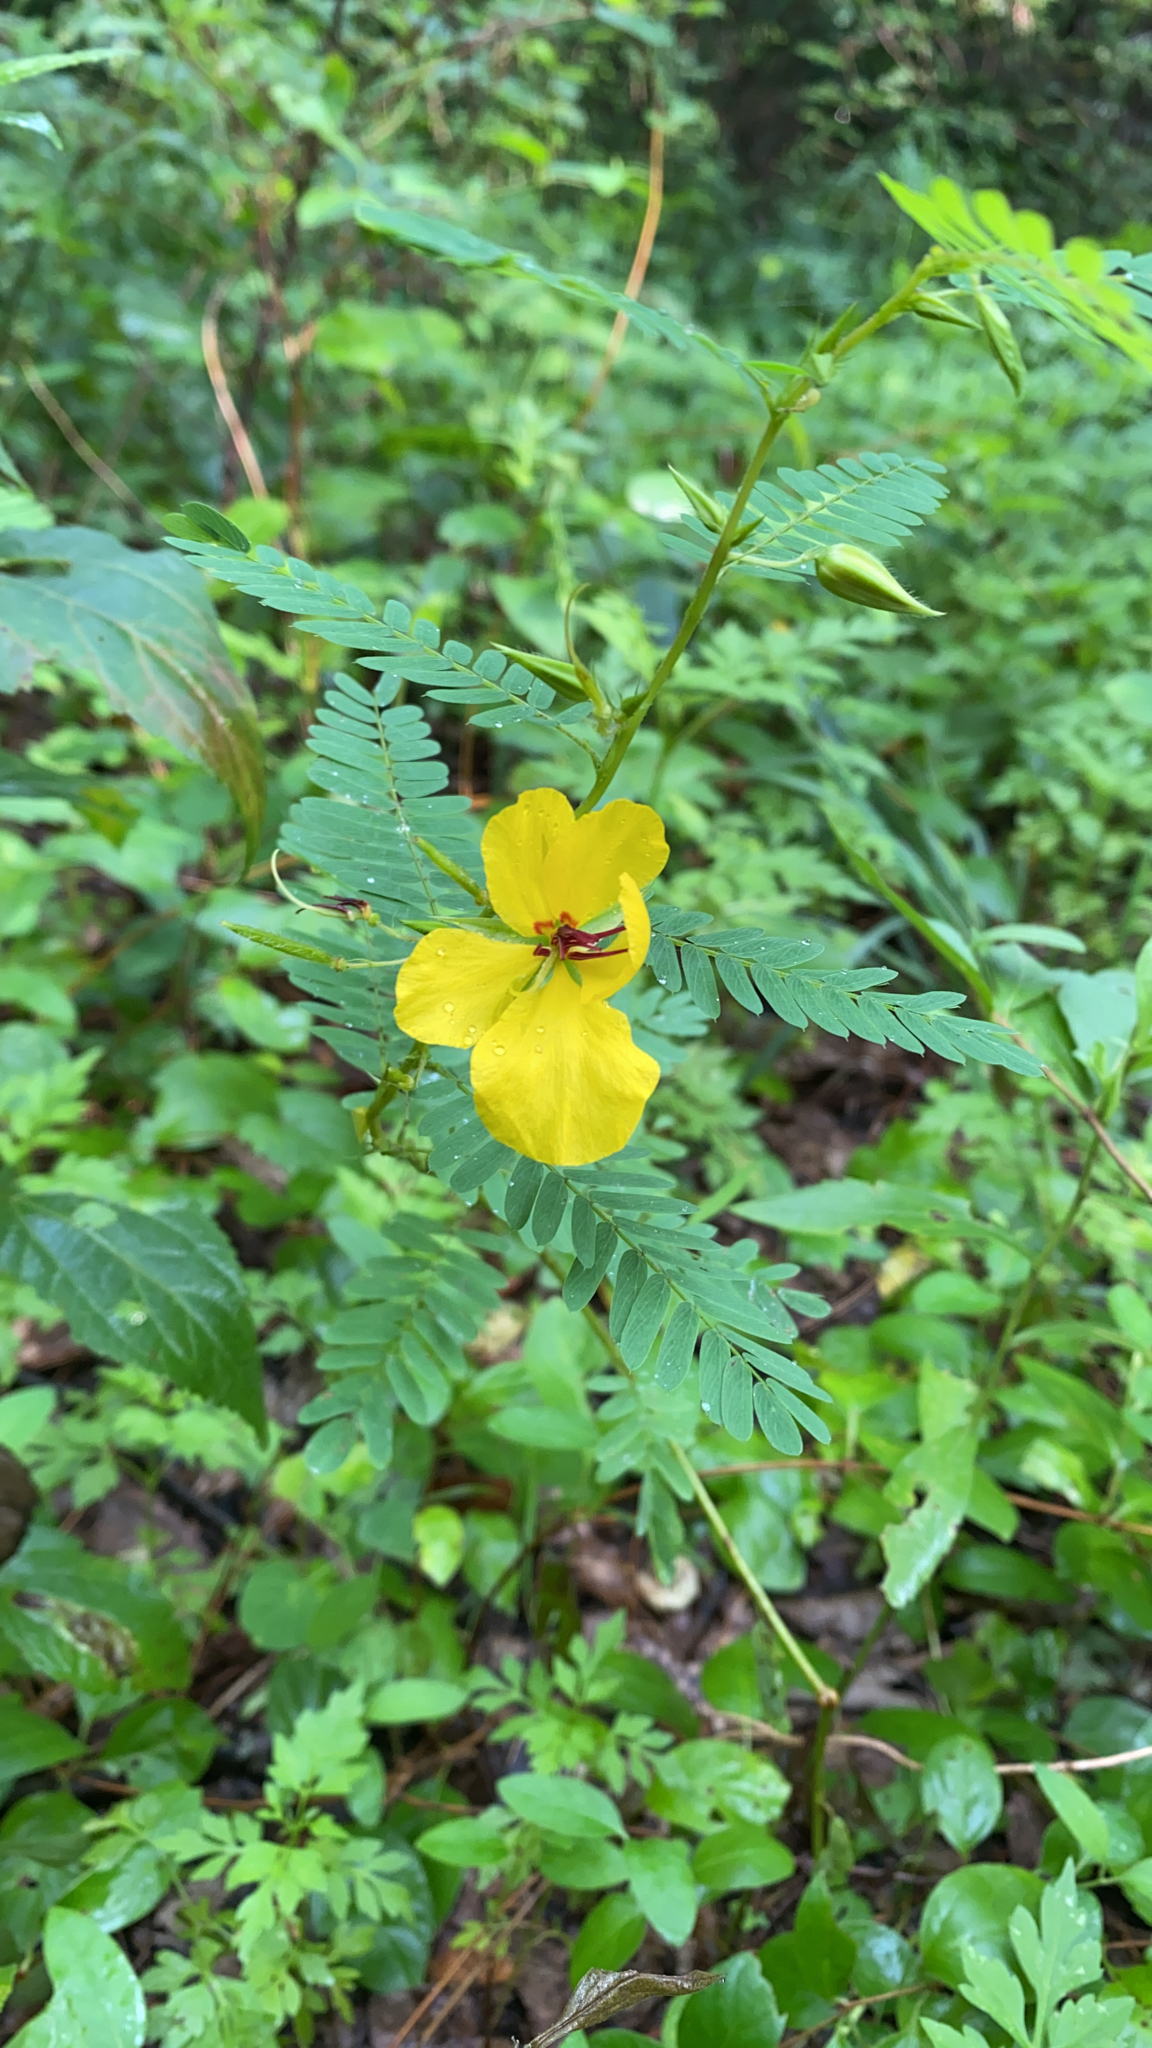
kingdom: Plantae
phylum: Tracheophyta
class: Magnoliopsida
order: Fabales
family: Fabaceae
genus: Chamaecrista
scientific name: Chamaecrista fasciculata
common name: Golden cassia
